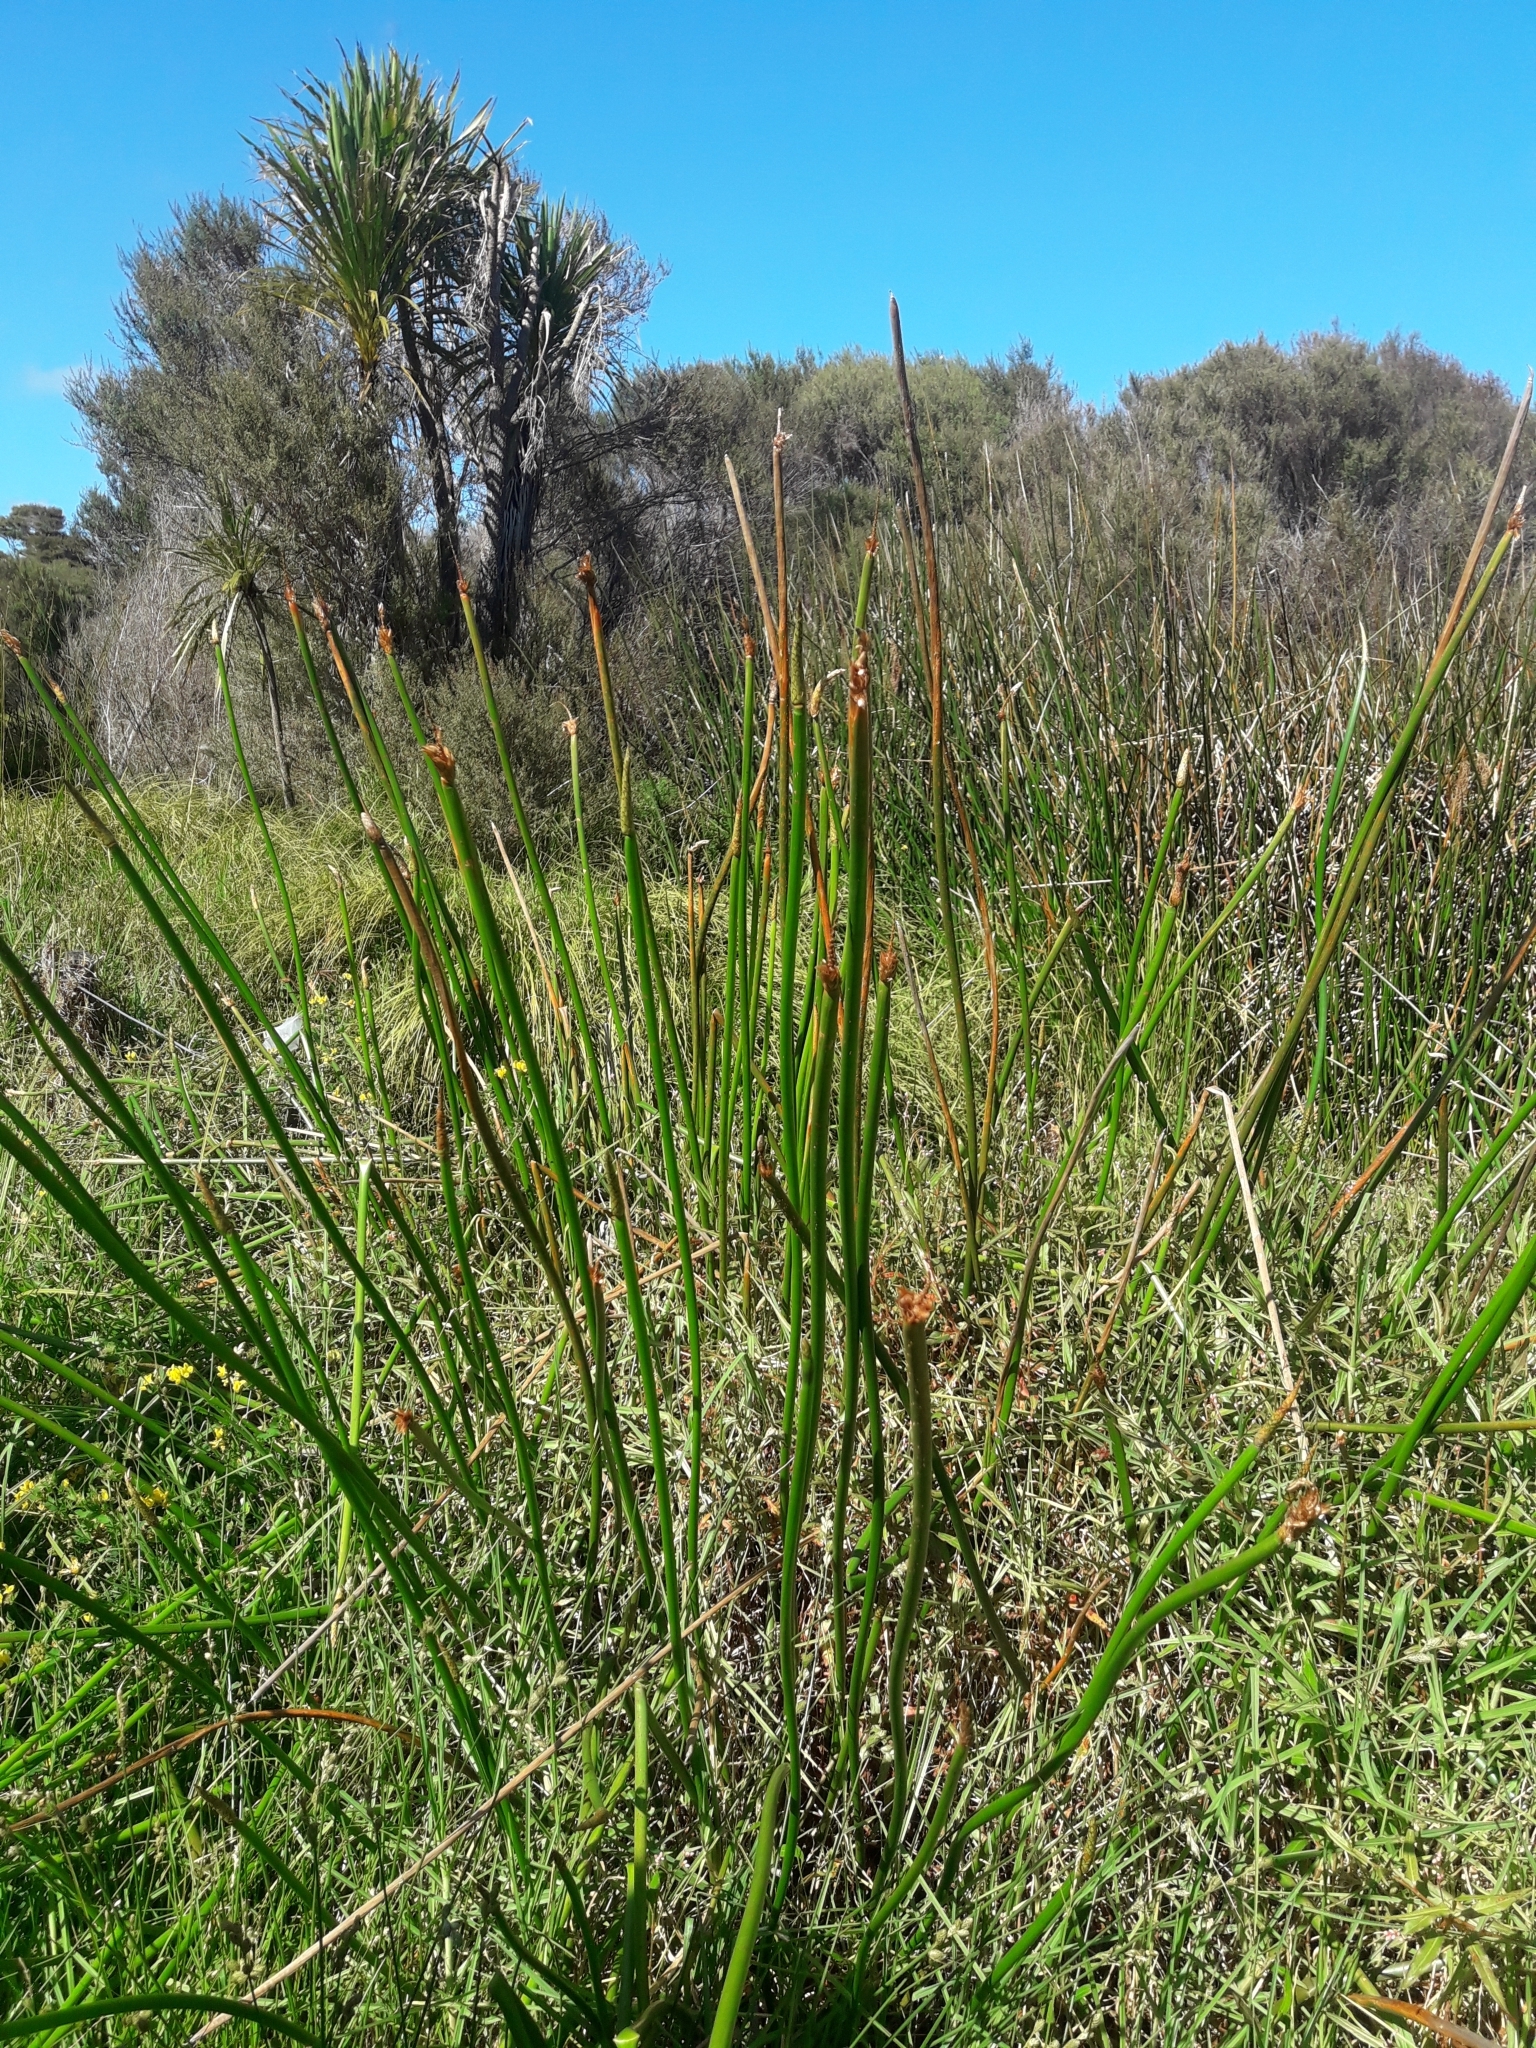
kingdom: Plantae
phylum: Tracheophyta
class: Liliopsida
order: Poales
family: Cyperaceae
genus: Eleocharis
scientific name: Eleocharis sphacelata
